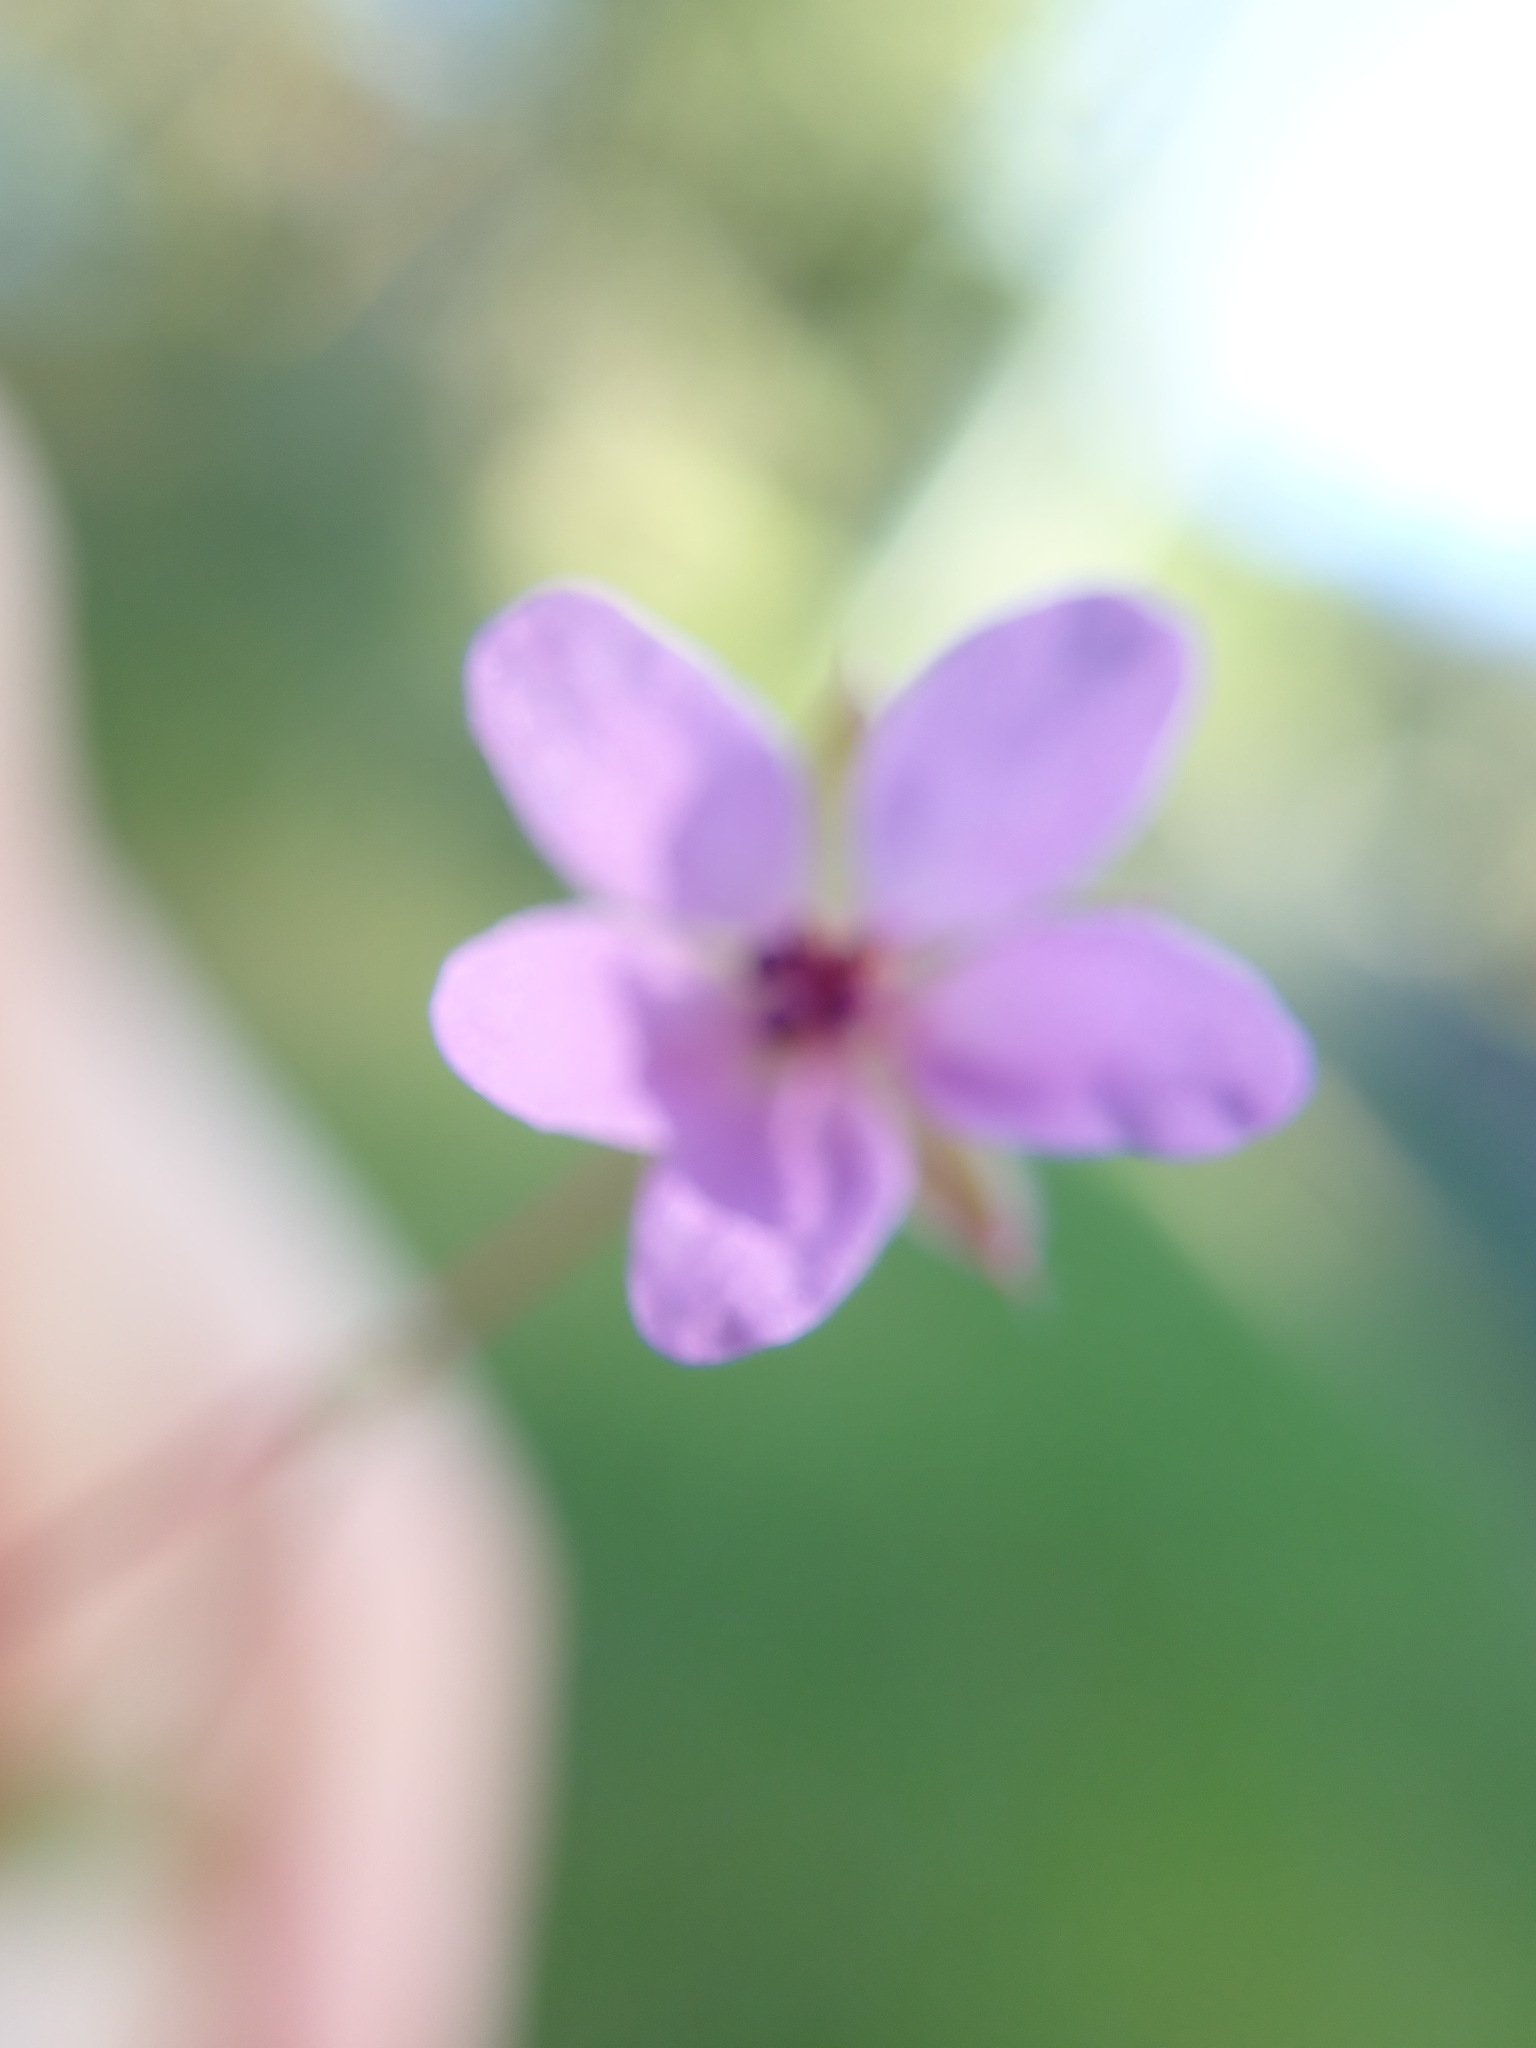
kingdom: Plantae
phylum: Tracheophyta
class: Magnoliopsida
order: Geraniales
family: Geraniaceae
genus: Erodium
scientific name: Erodium cicutarium
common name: Common stork's-bill
